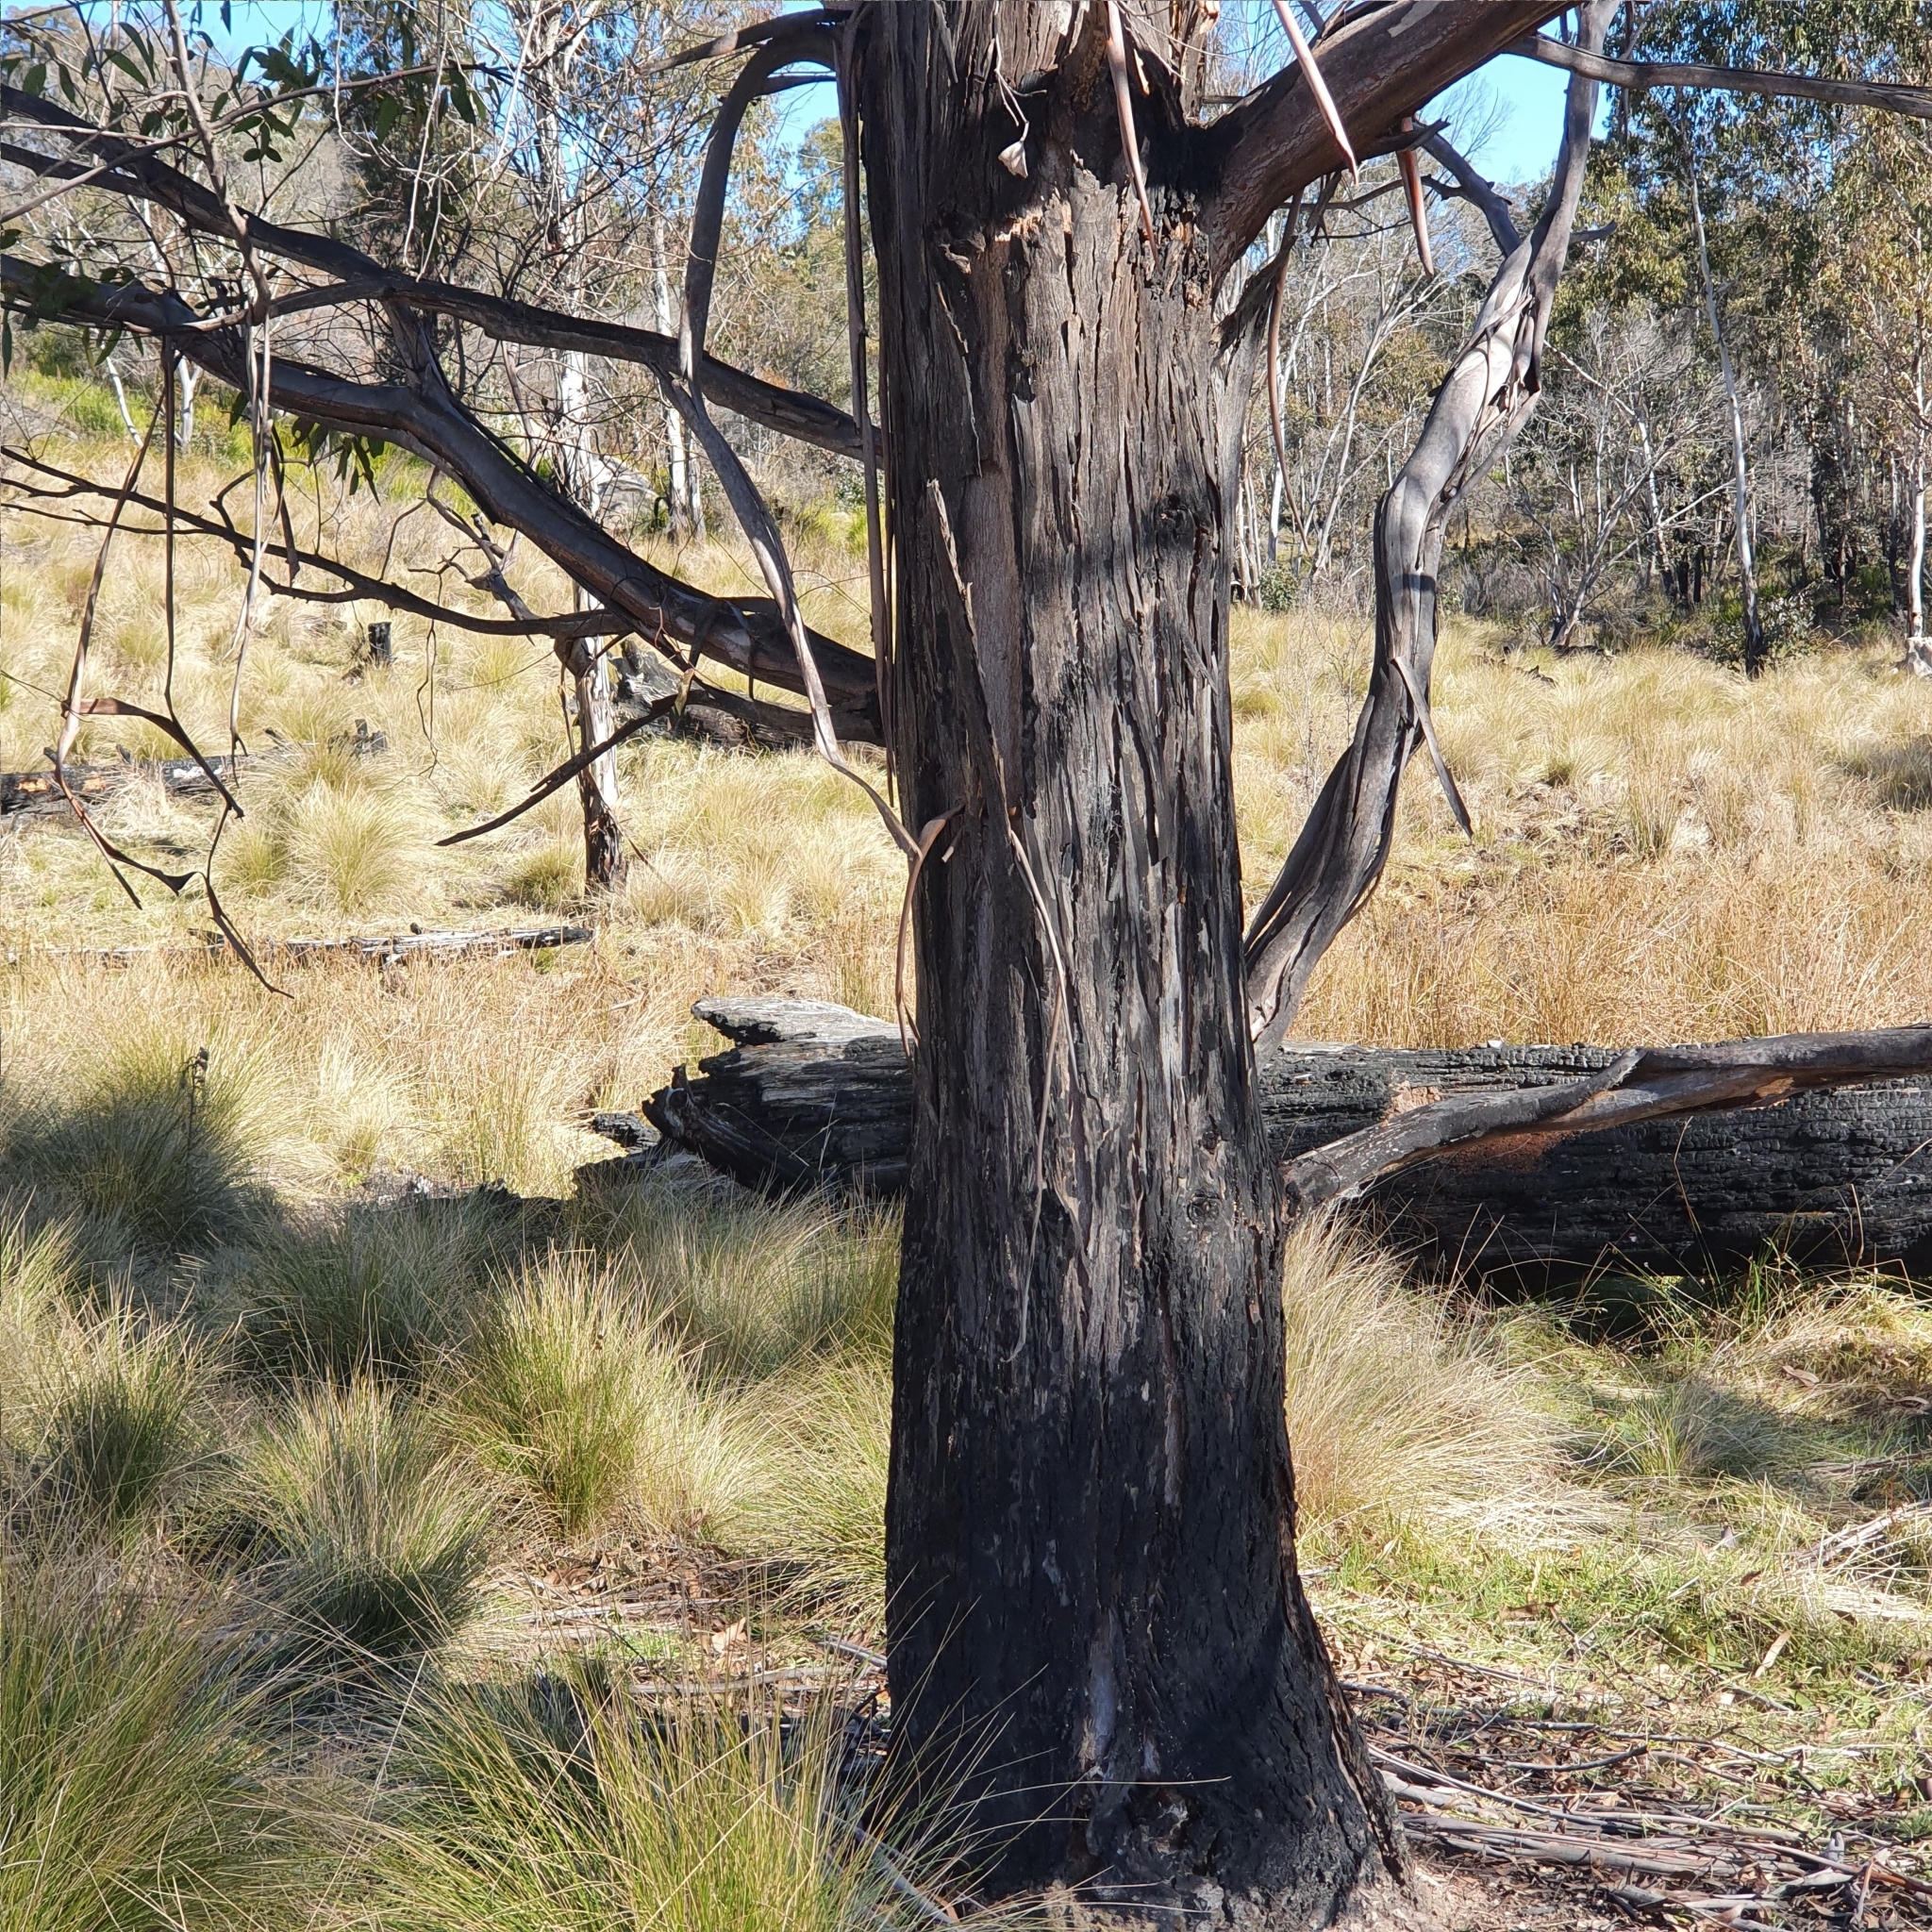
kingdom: Plantae
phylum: Tracheophyta
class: Magnoliopsida
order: Myrtales
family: Myrtaceae
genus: Eucalyptus
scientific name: Eucalyptus viminalis
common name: Manna gum
